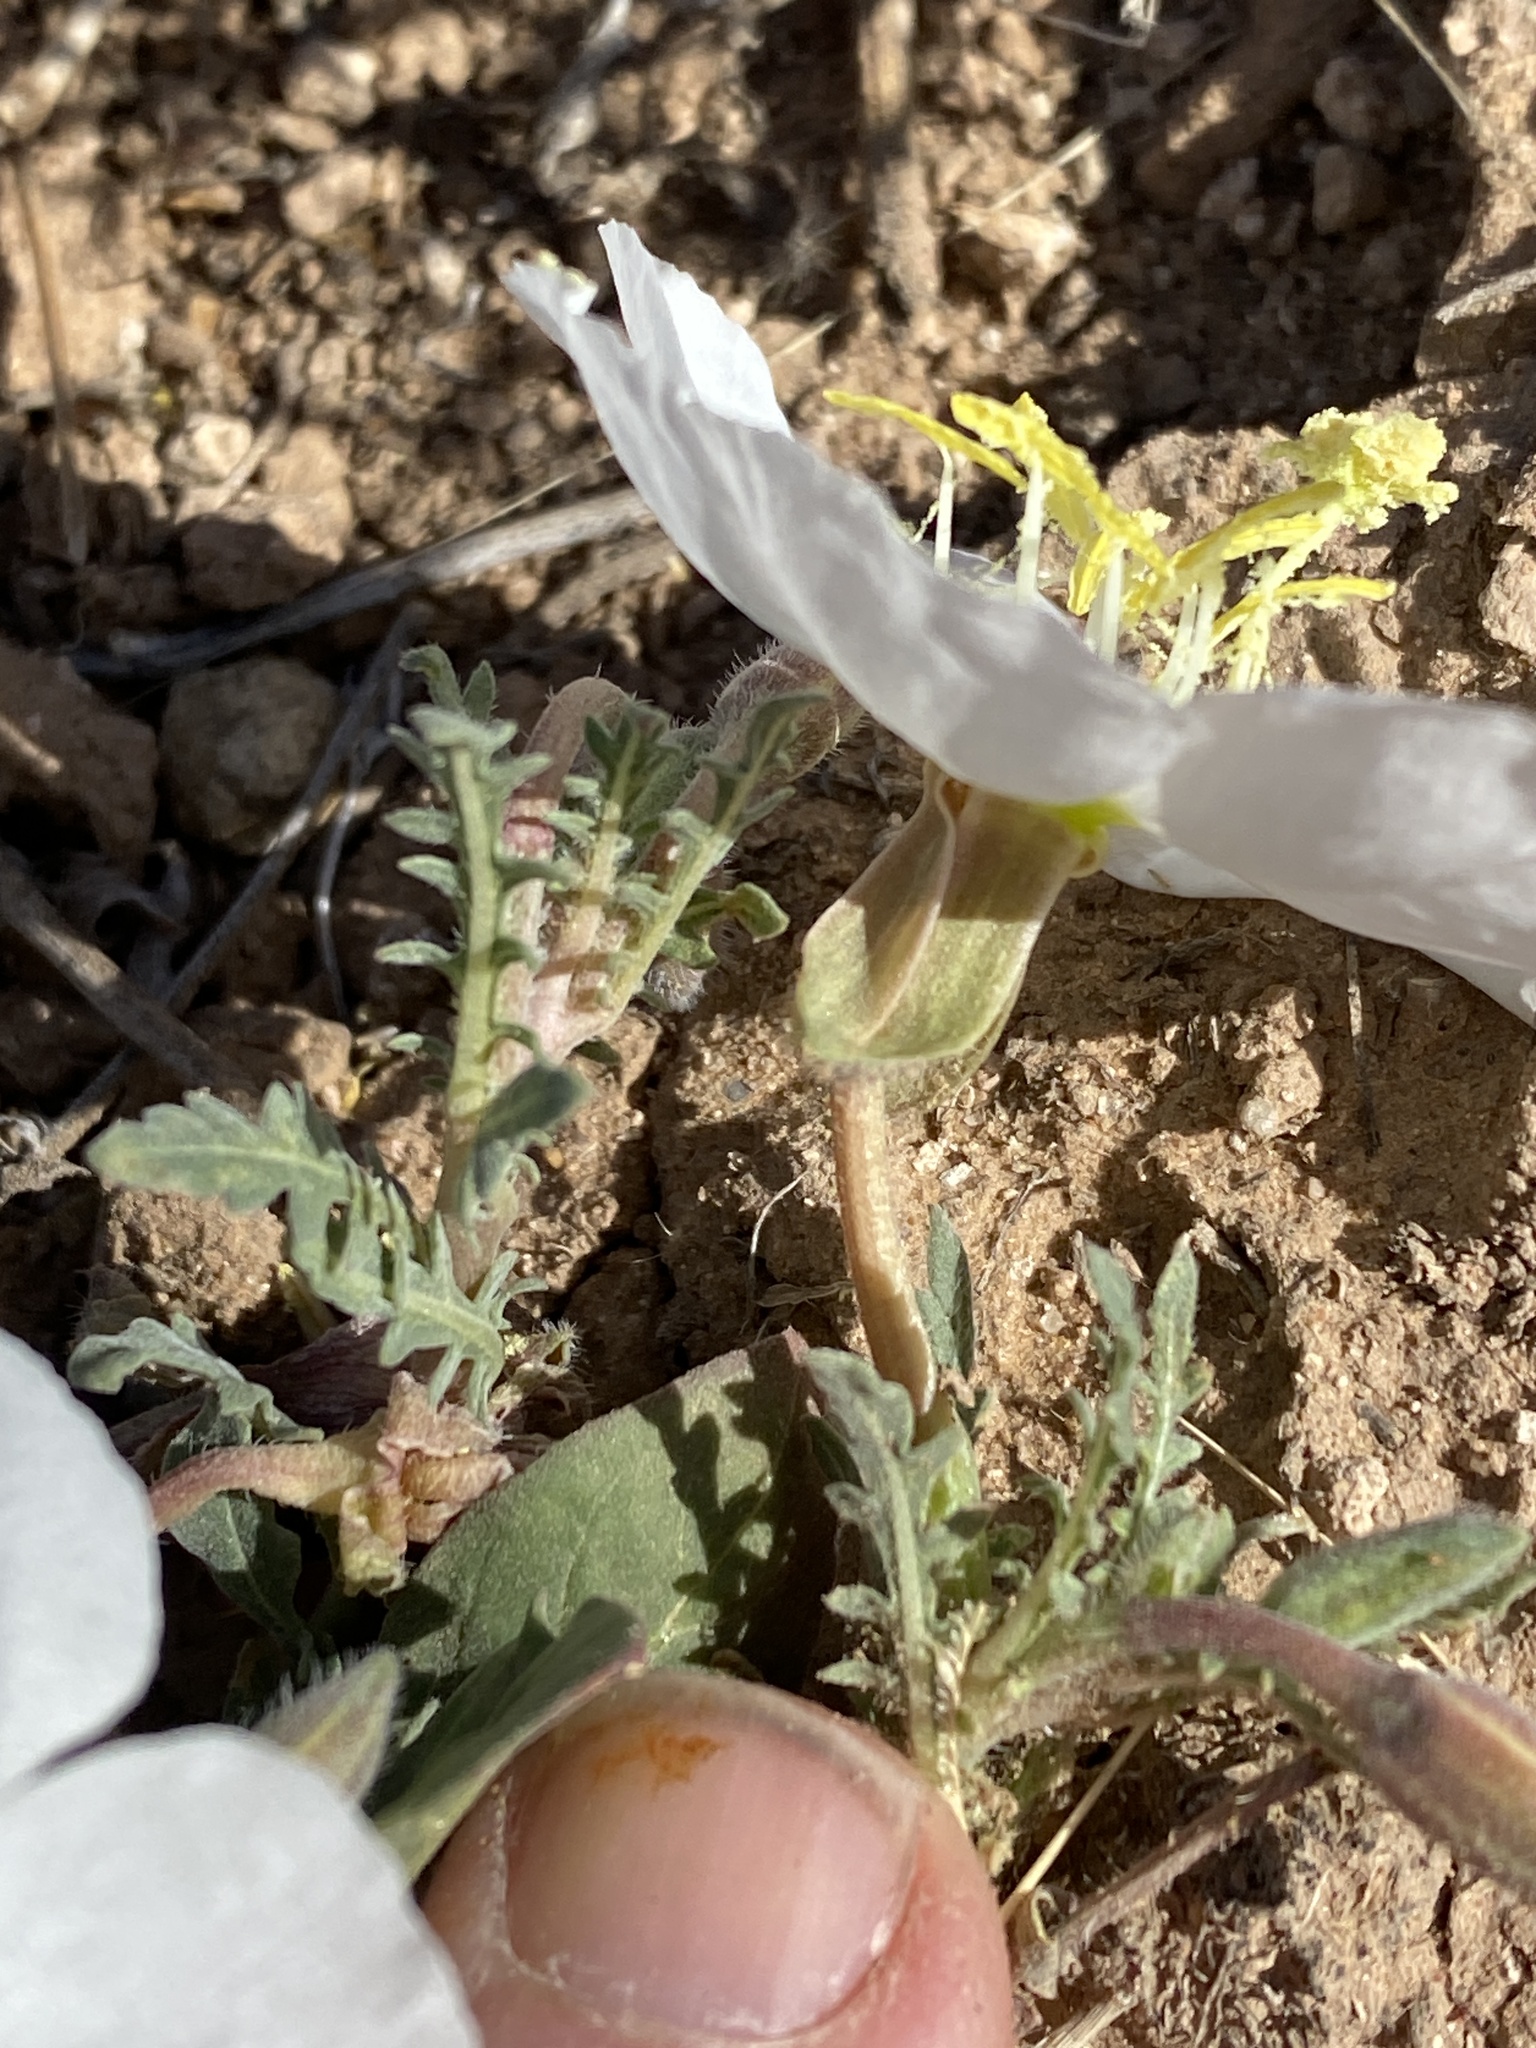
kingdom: Plantae
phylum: Tracheophyta
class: Magnoliopsida
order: Myrtales
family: Onagraceae
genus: Oenothera
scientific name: Oenothera albicaulis
